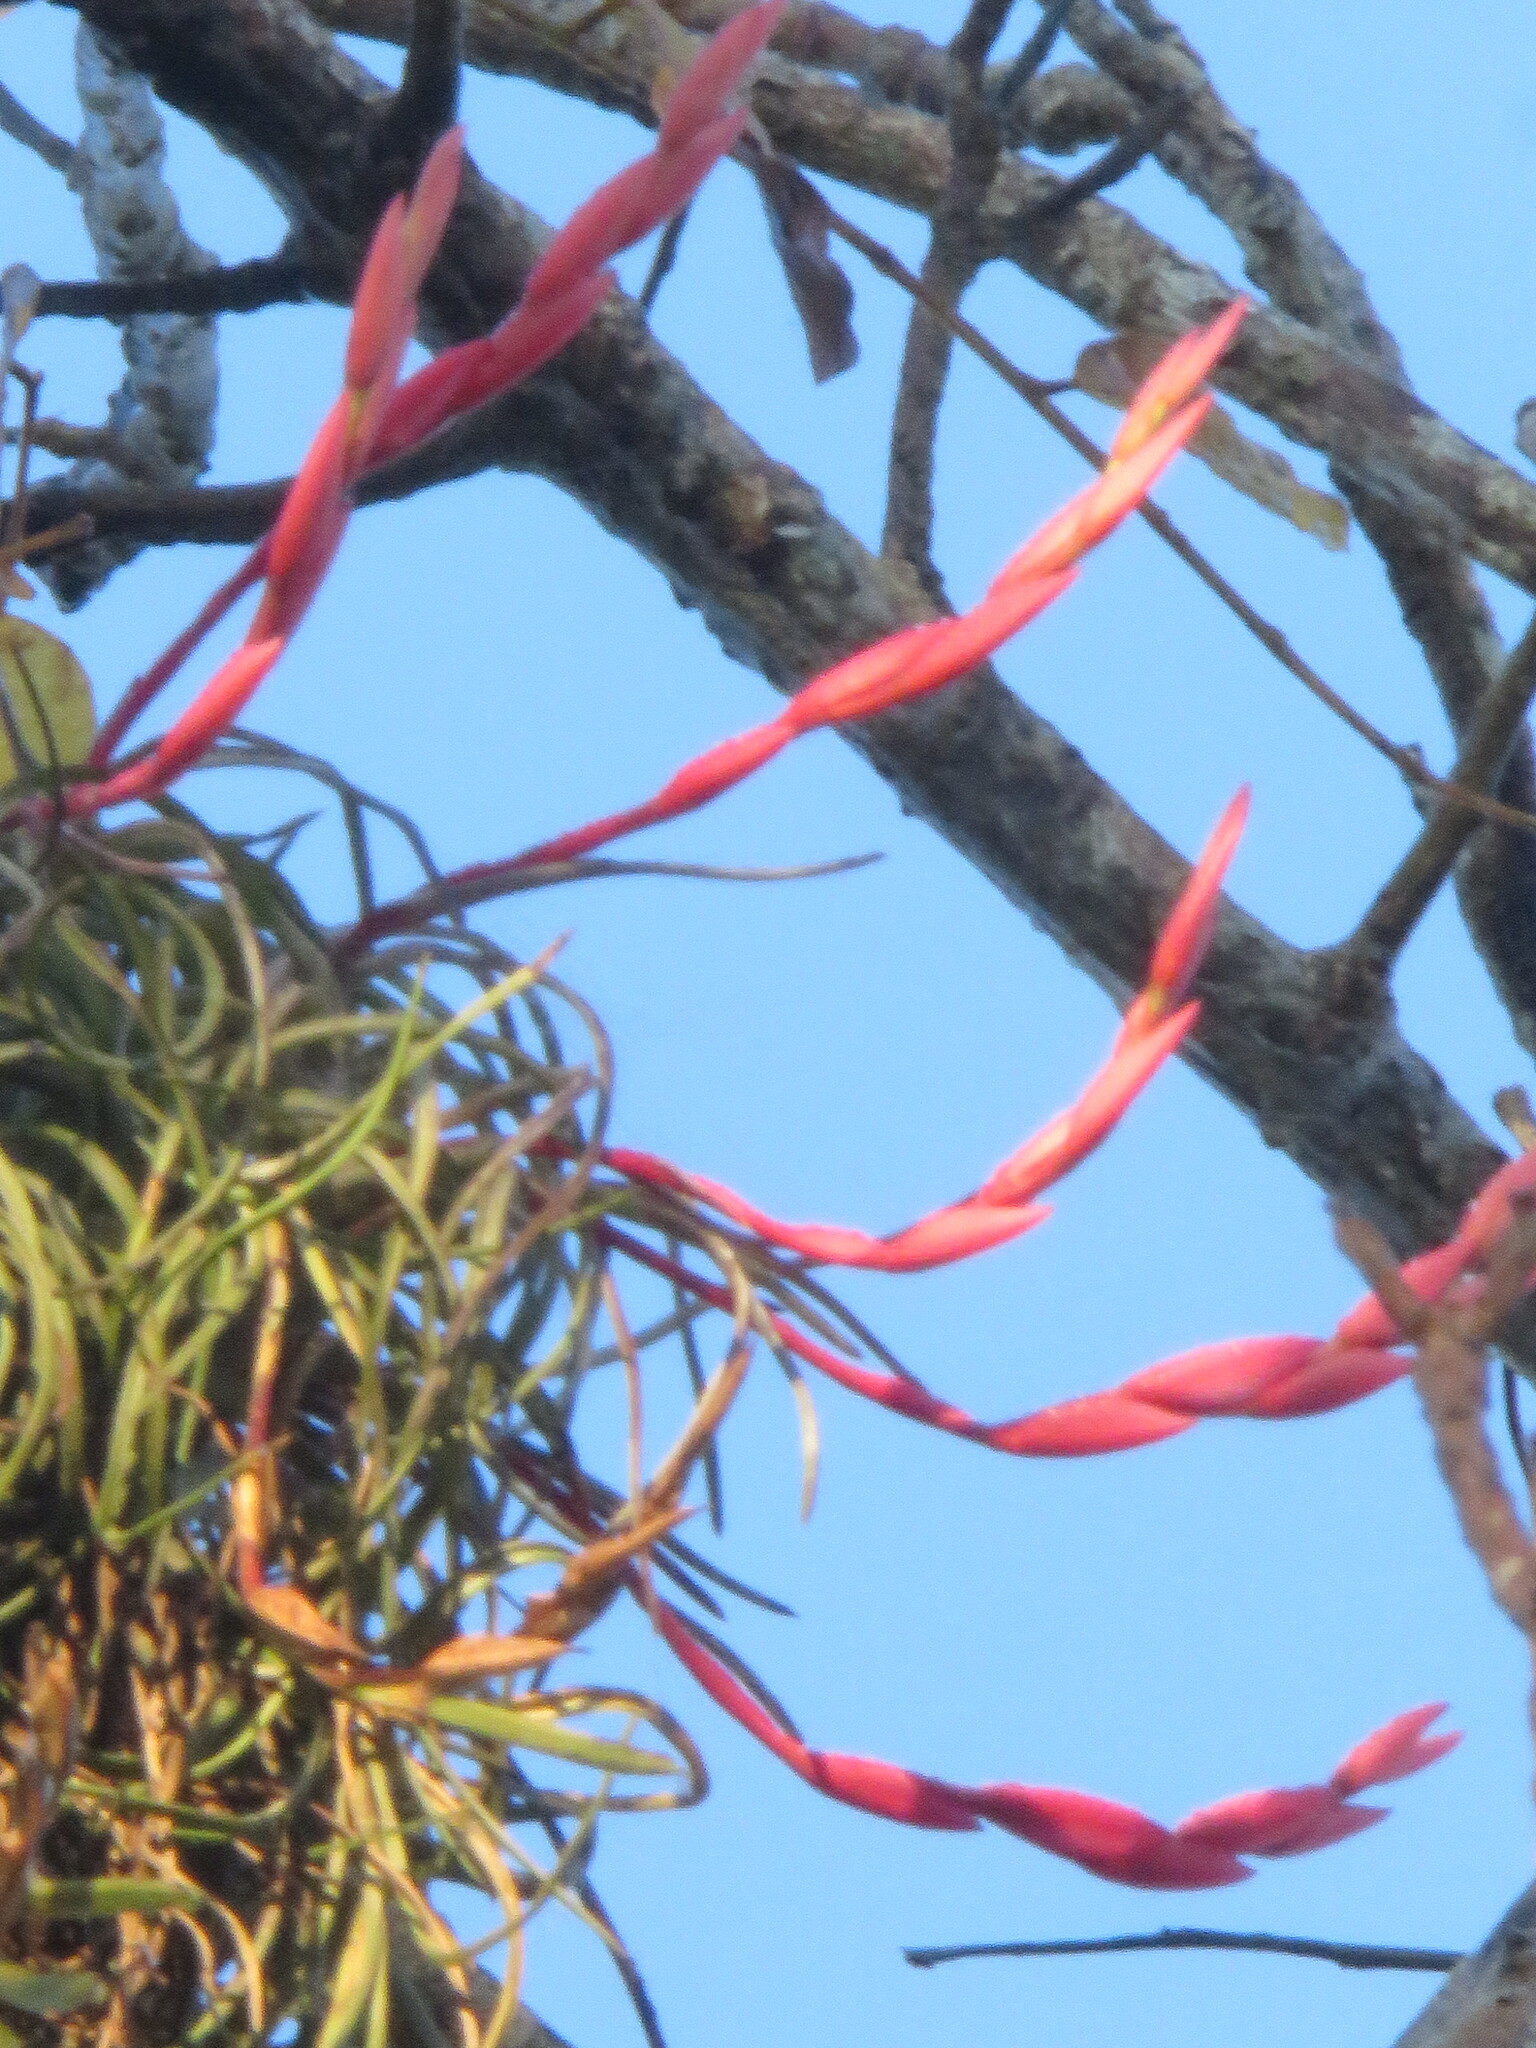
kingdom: Plantae
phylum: Tracheophyta
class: Liliopsida
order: Poales
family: Bromeliaceae
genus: Tillandsia
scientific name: Tillandsia paraensis
